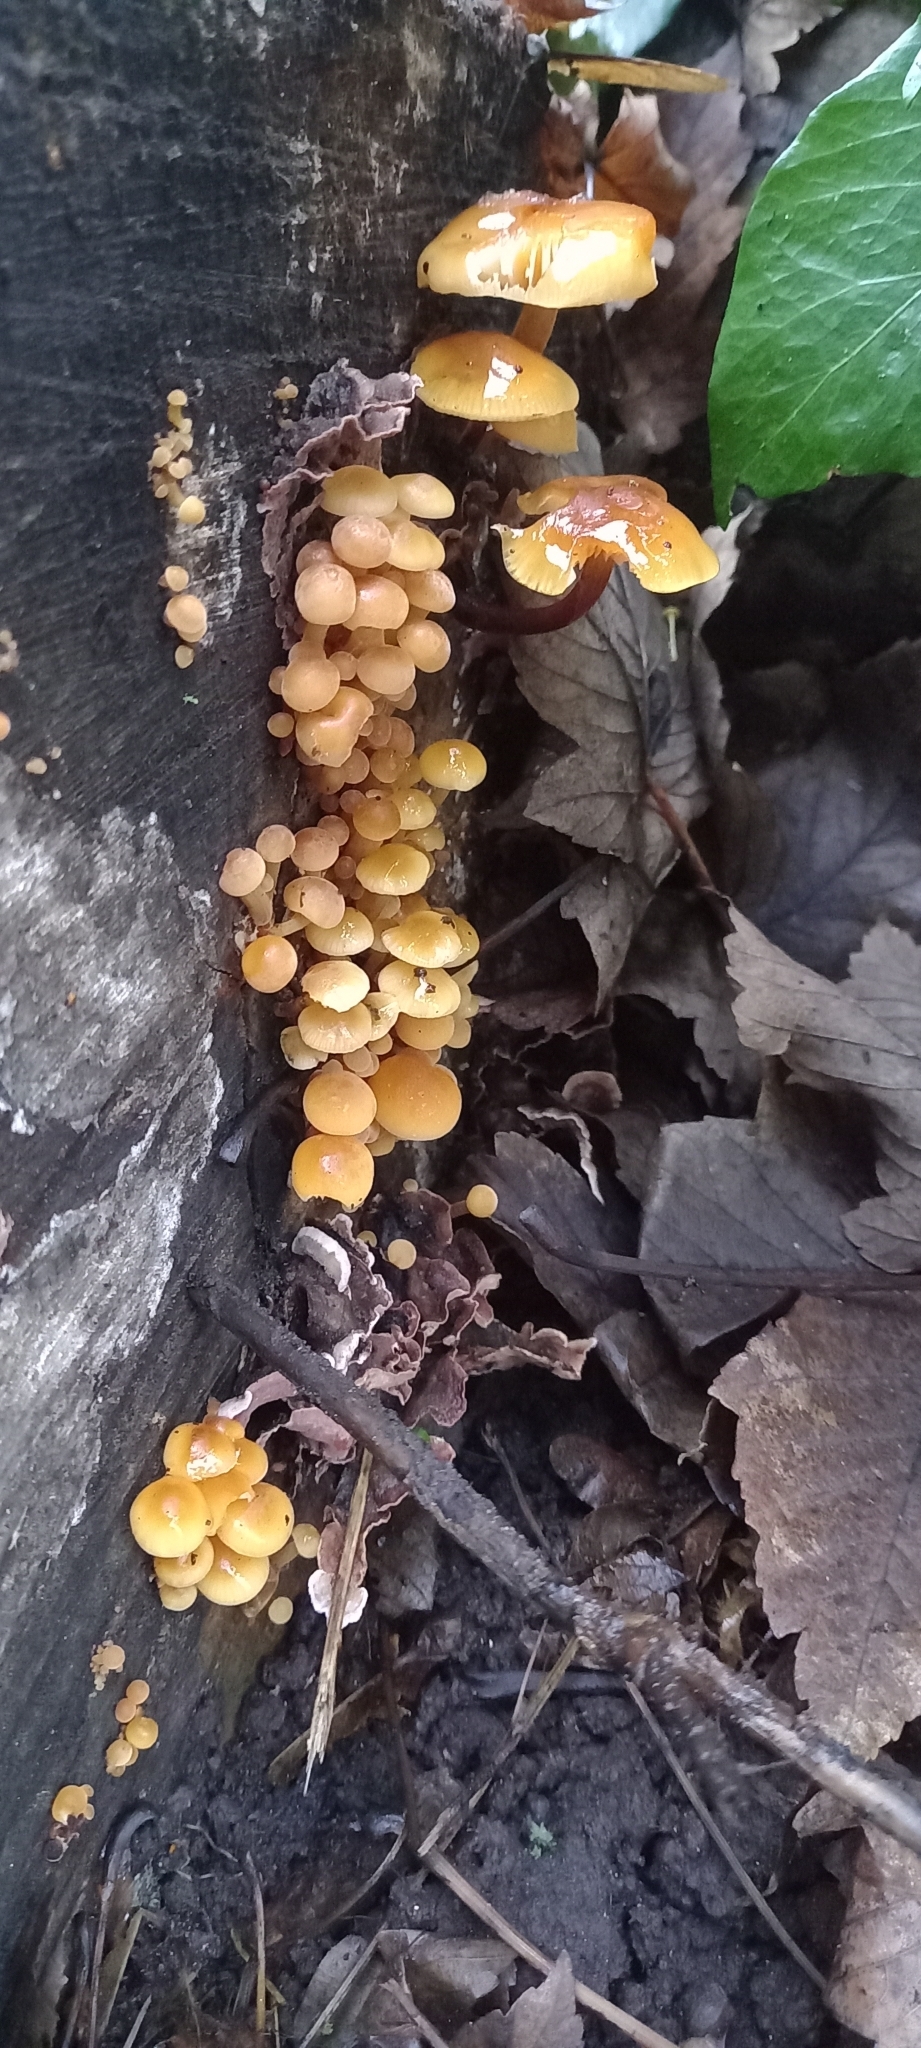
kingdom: Fungi
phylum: Basidiomycota
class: Agaricomycetes
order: Agaricales
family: Physalacriaceae
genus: Flammulina
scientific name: Flammulina
